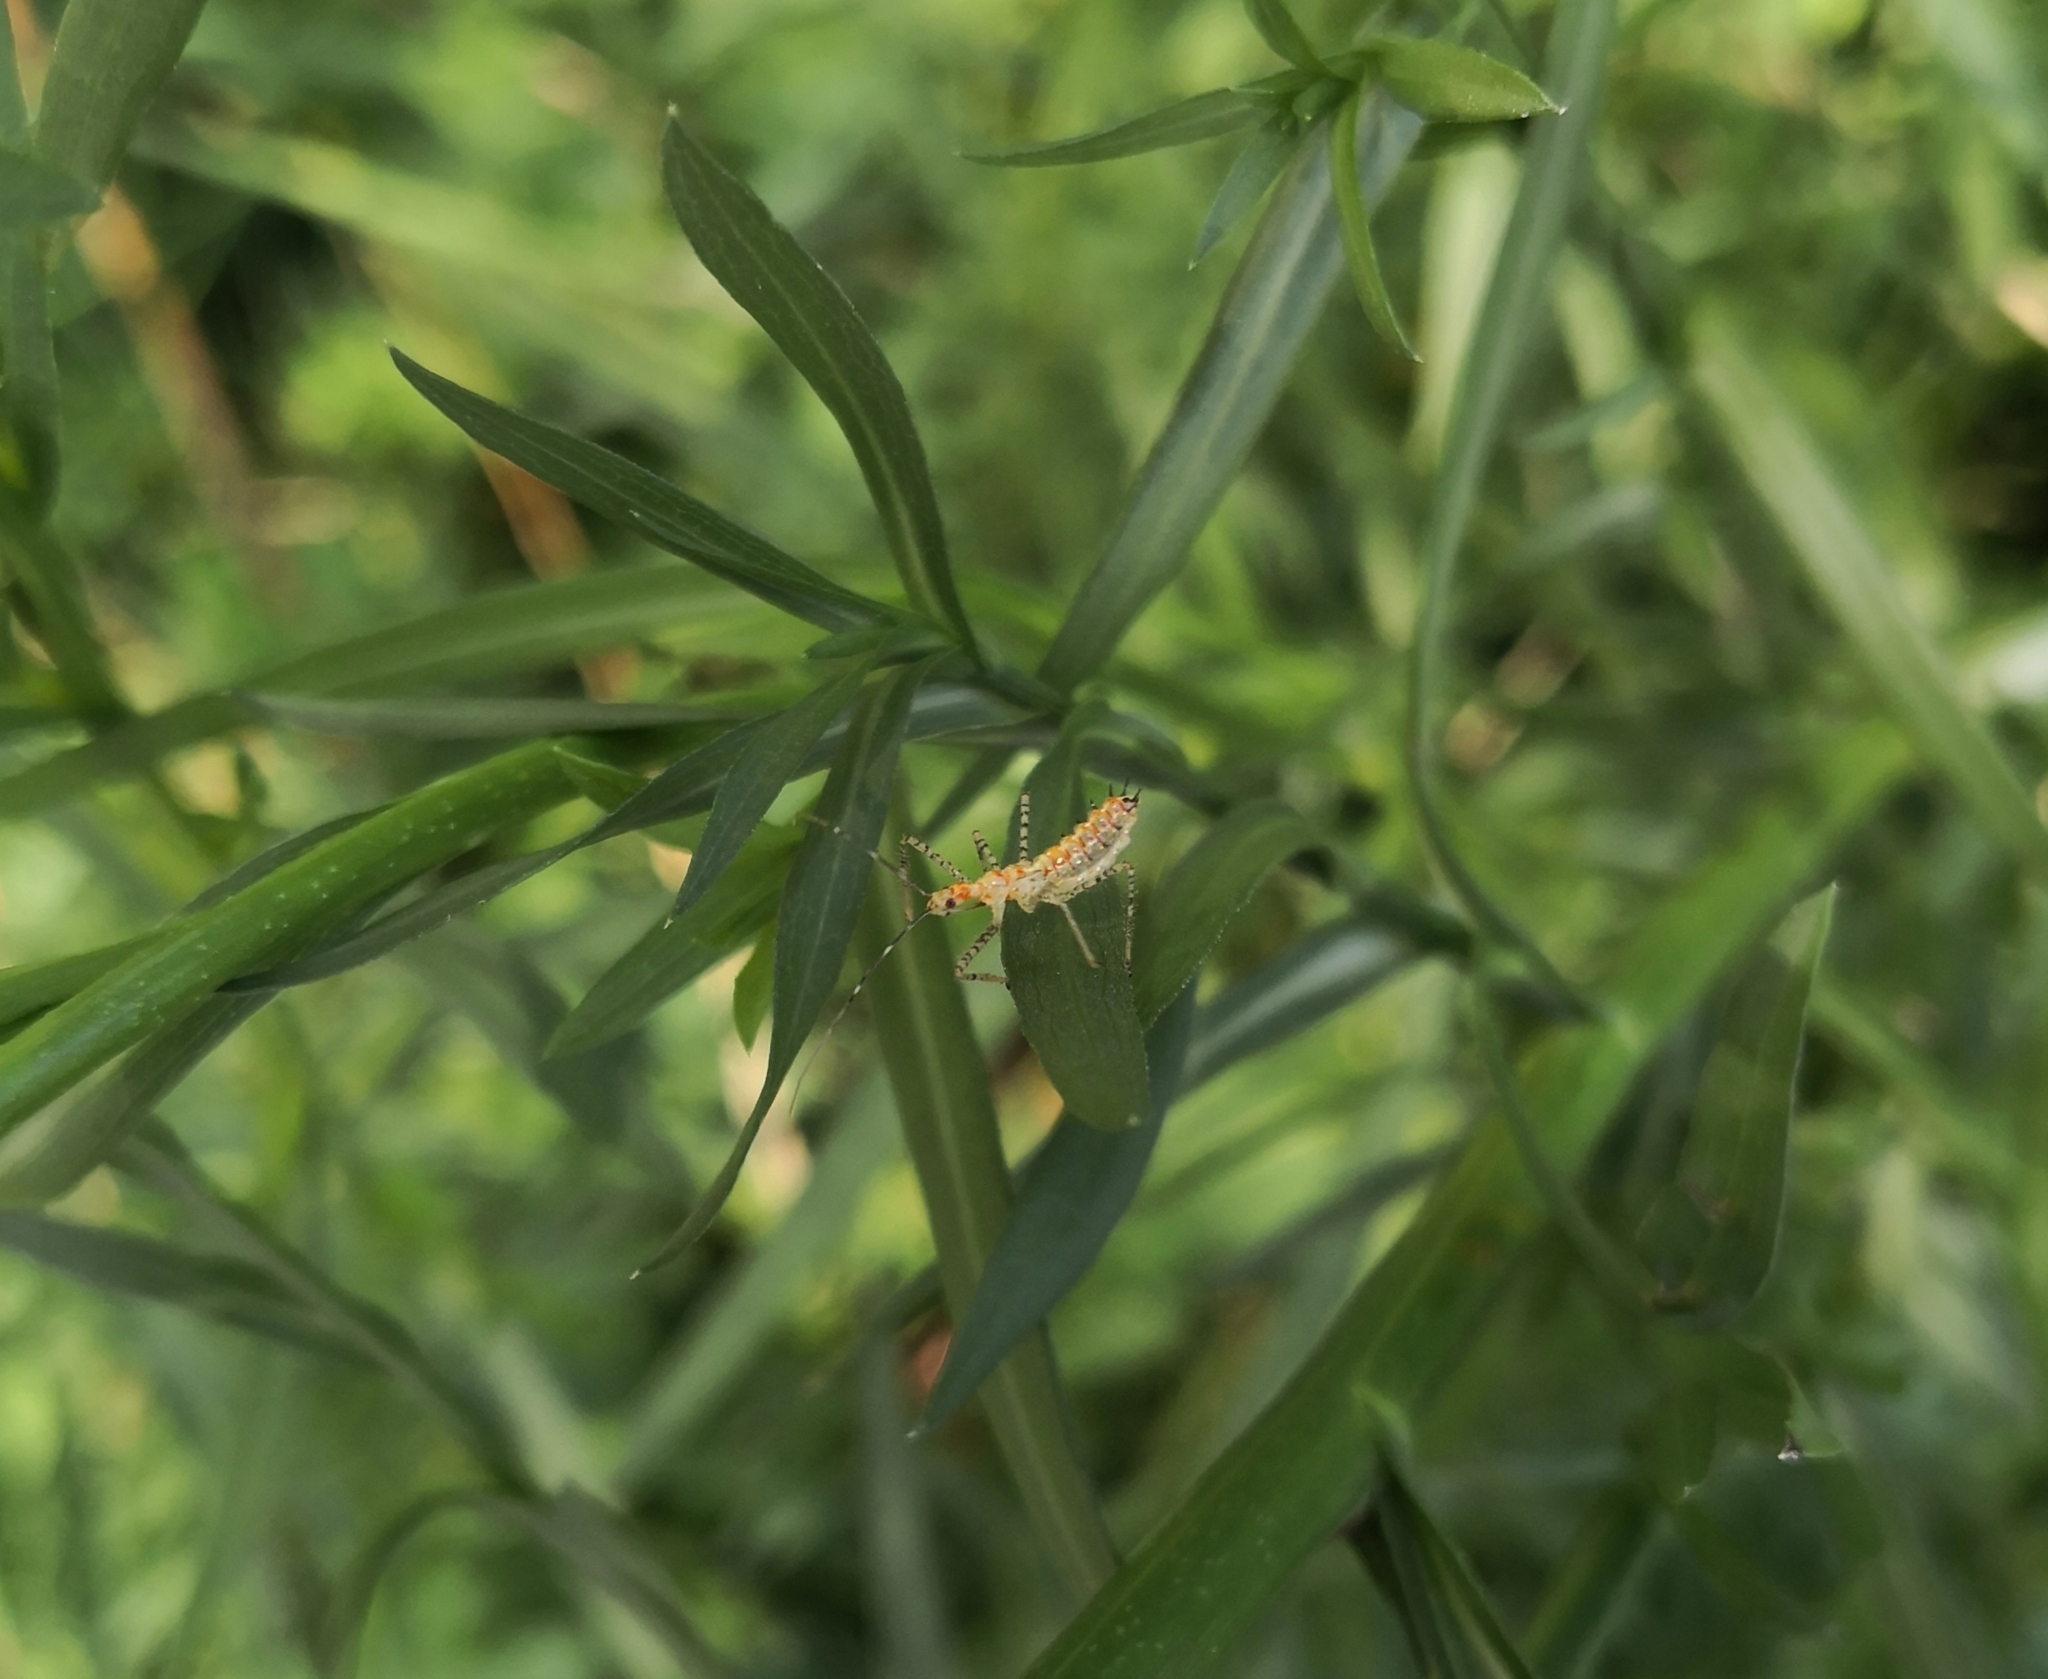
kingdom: Animalia
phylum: Arthropoda
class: Insecta
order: Hemiptera
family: Reduviidae
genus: Zelus
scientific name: Zelus renardii
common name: Assassin bug
